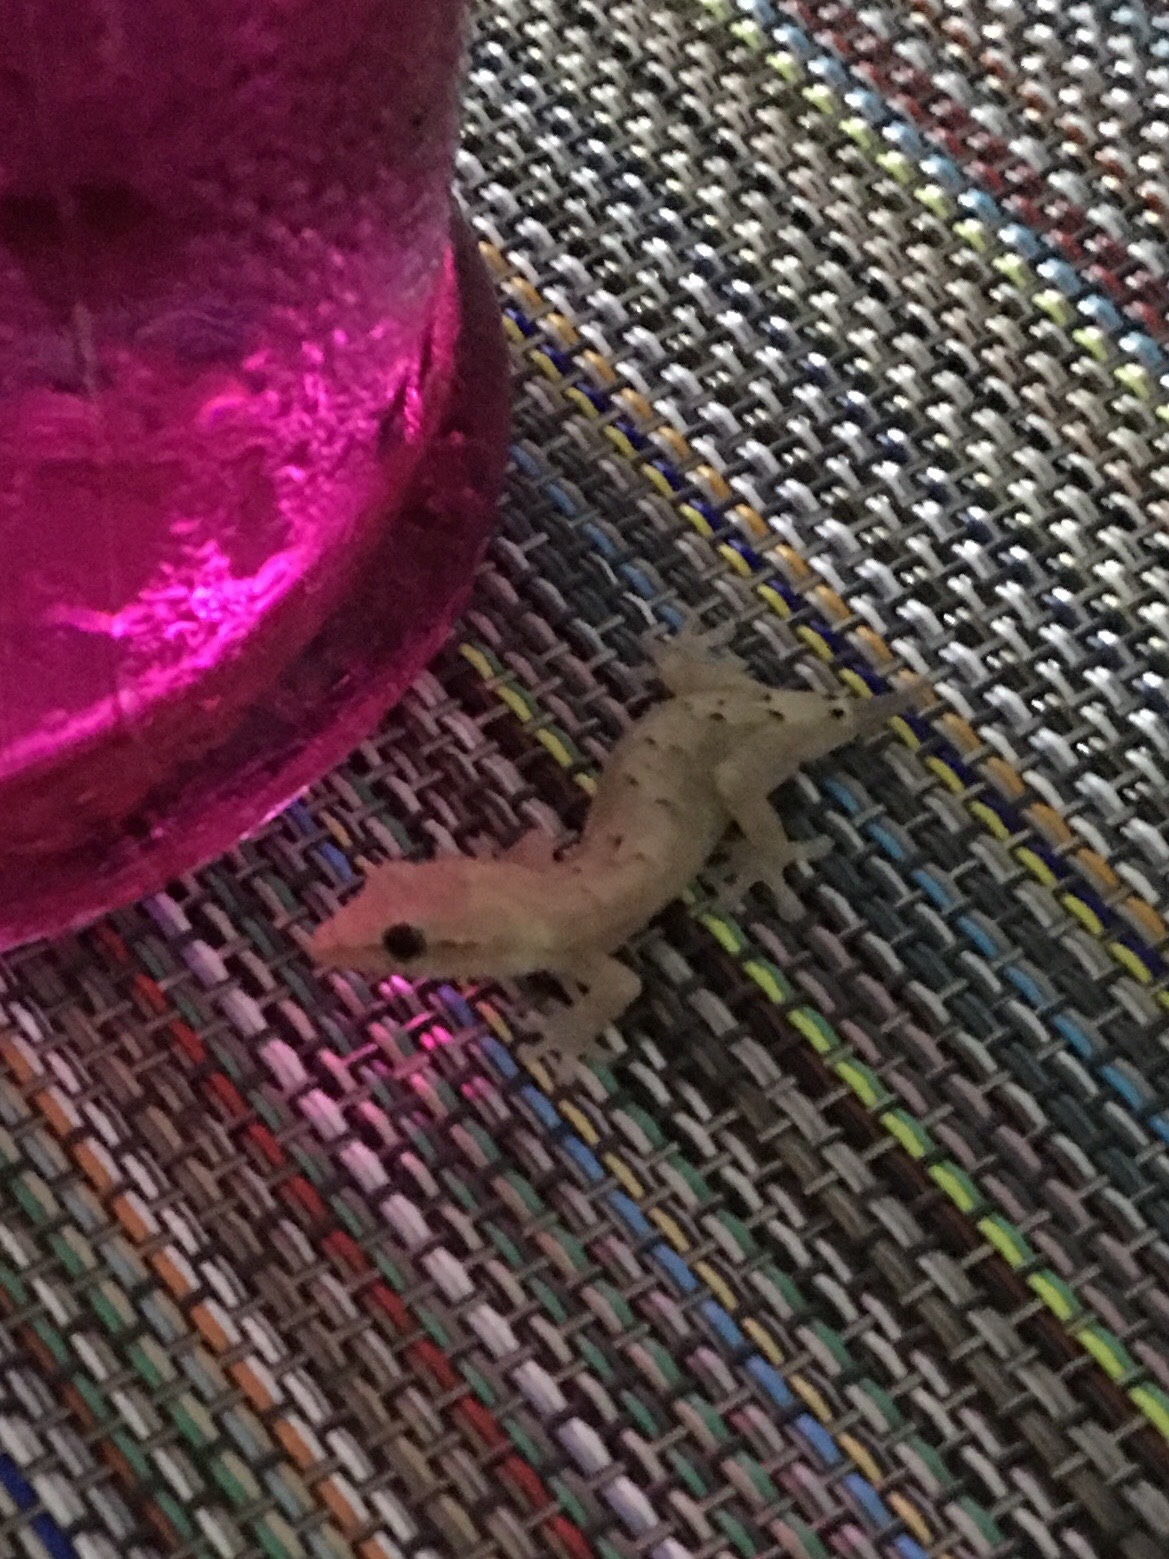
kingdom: Animalia
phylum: Chordata
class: Squamata
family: Gekkonidae
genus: Lepidodactylus
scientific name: Lepidodactylus lugubris
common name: Mourning gecko
